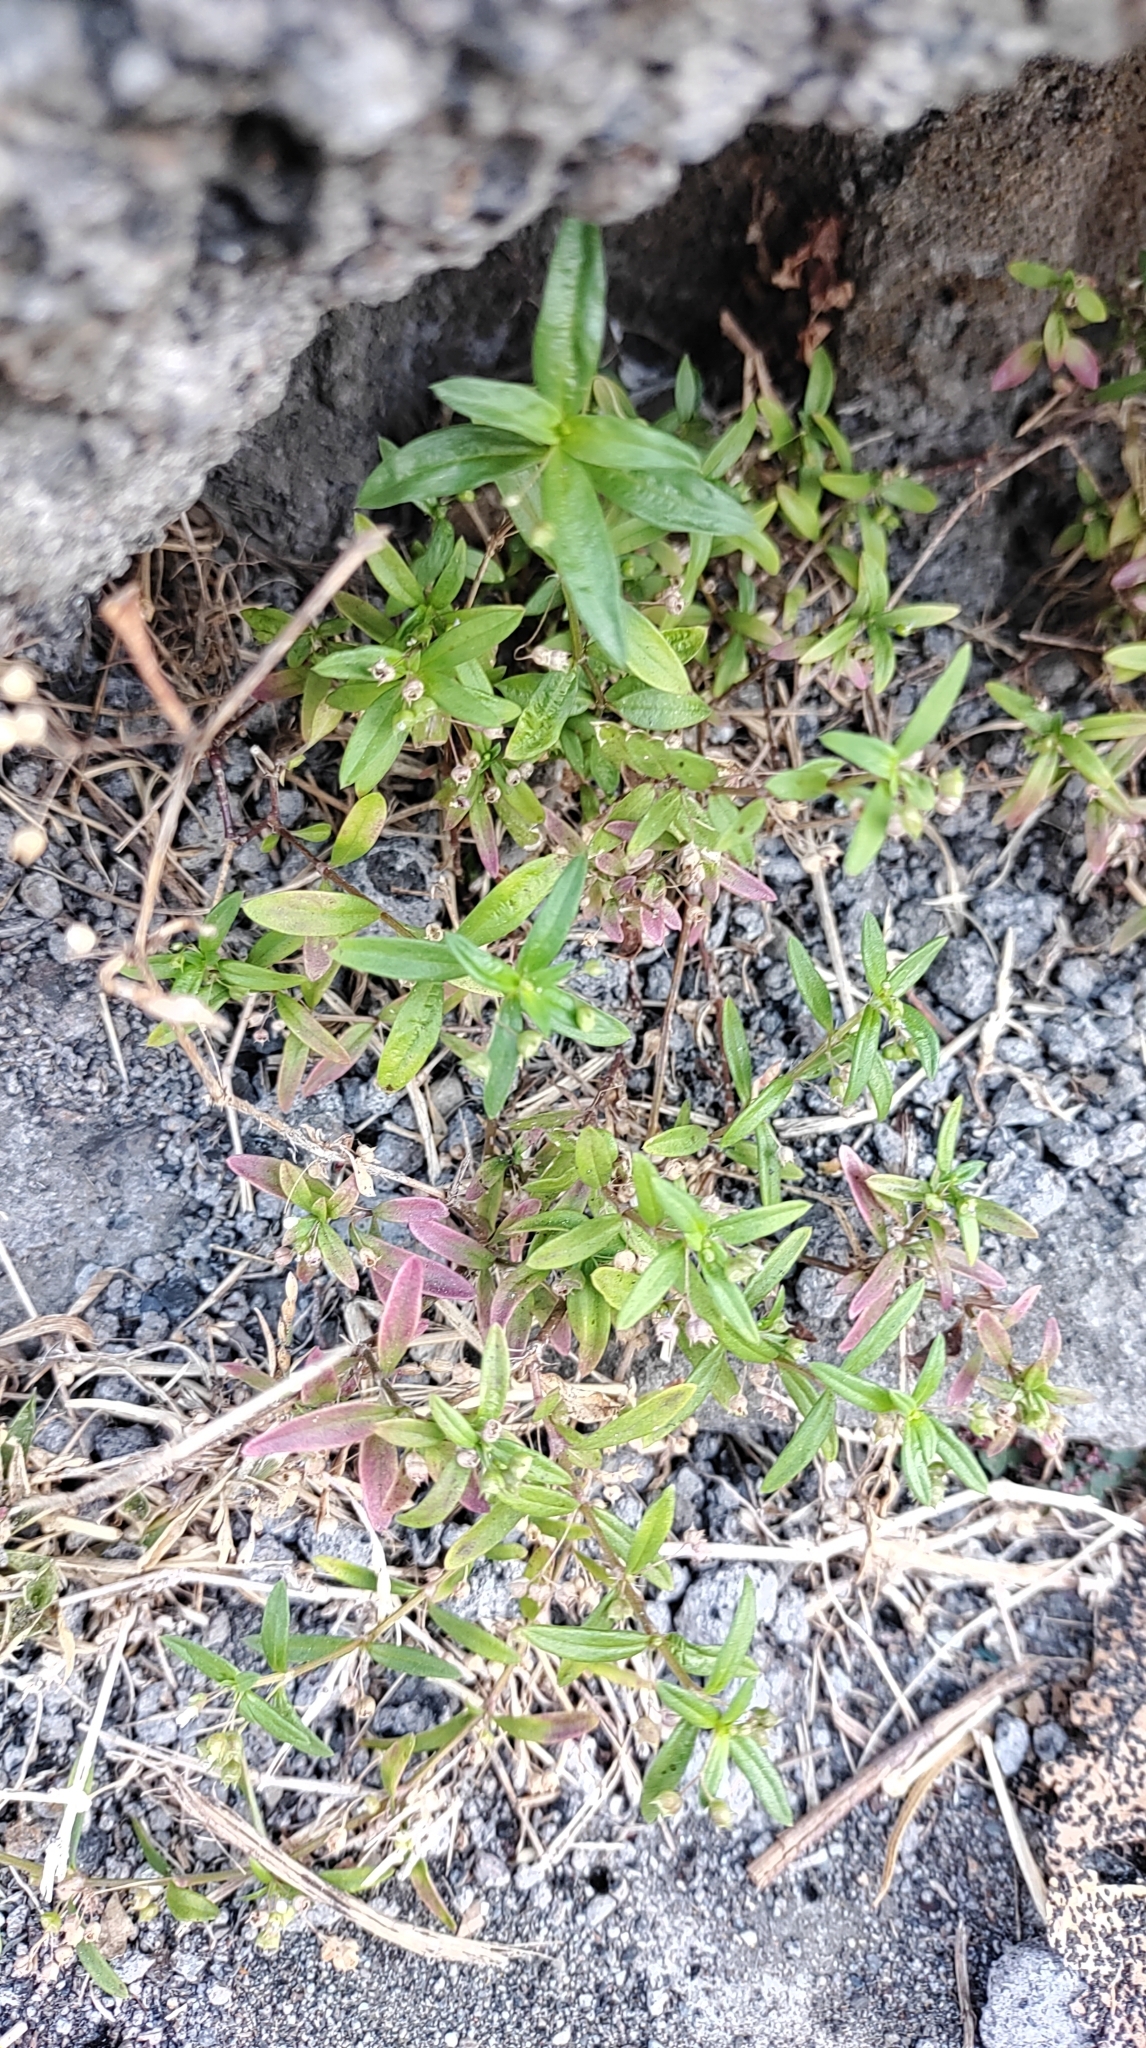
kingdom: Plantae
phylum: Tracheophyta
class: Magnoliopsida
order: Gentianales
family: Rubiaceae
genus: Oldenlandia
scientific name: Oldenlandia corymbosa
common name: Flat-top mille graines
